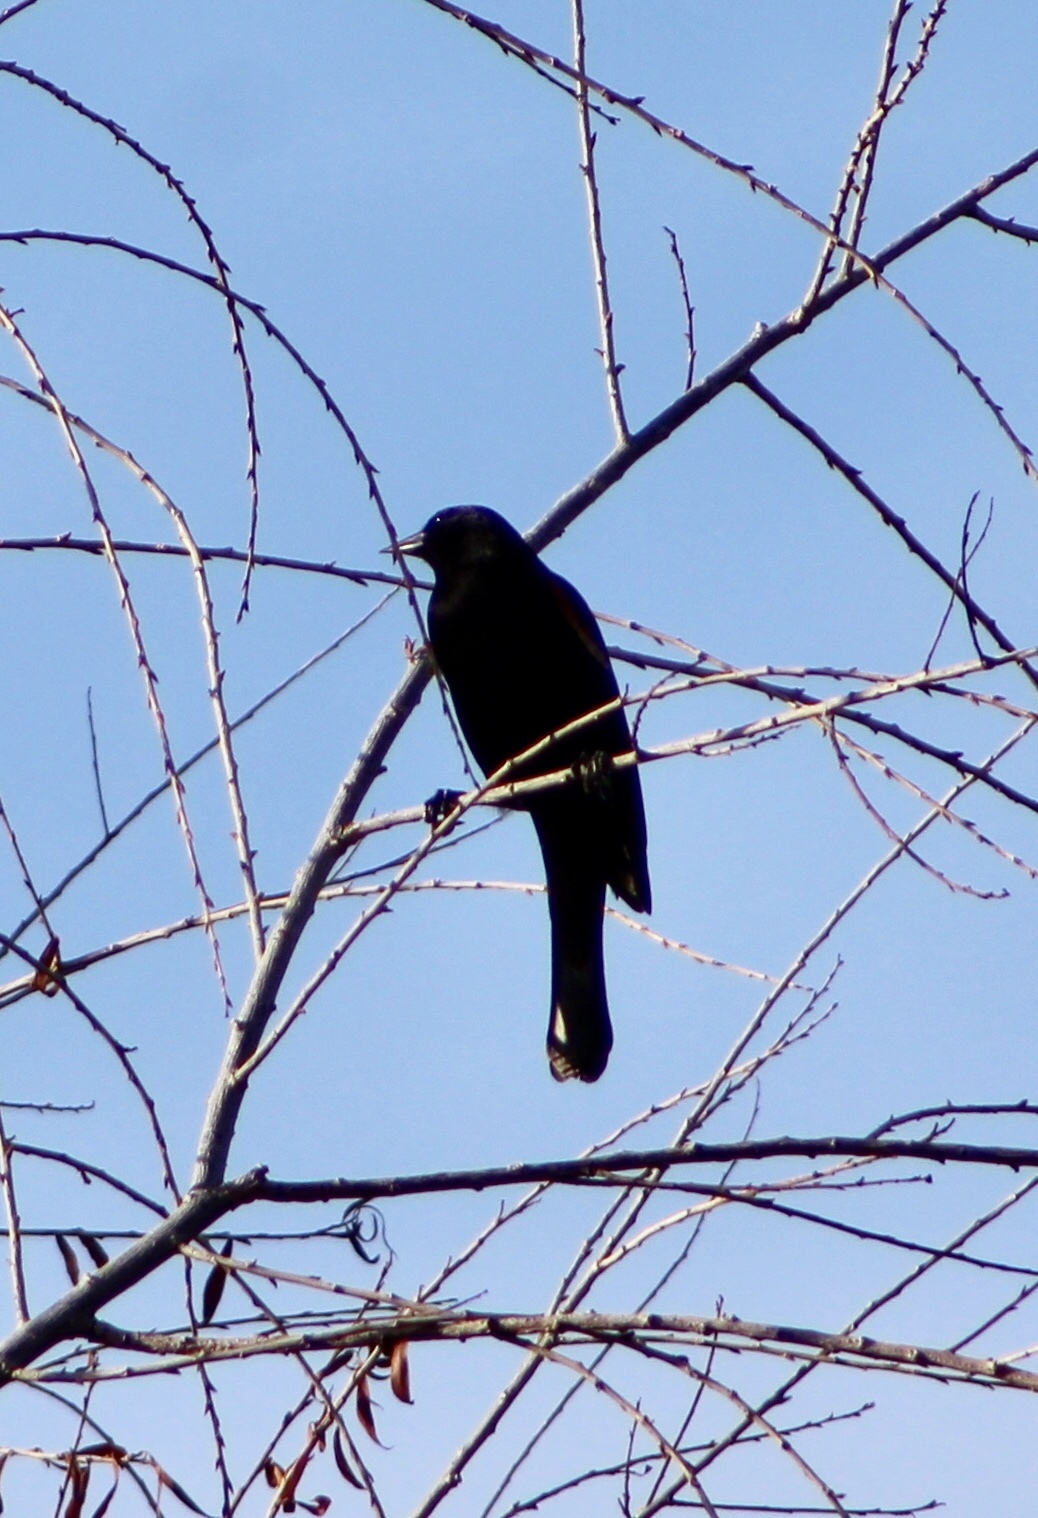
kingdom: Animalia
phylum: Chordata
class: Aves
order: Passeriformes
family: Icteridae
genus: Agelaius
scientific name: Agelaius phoeniceus
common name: Red-winged blackbird
